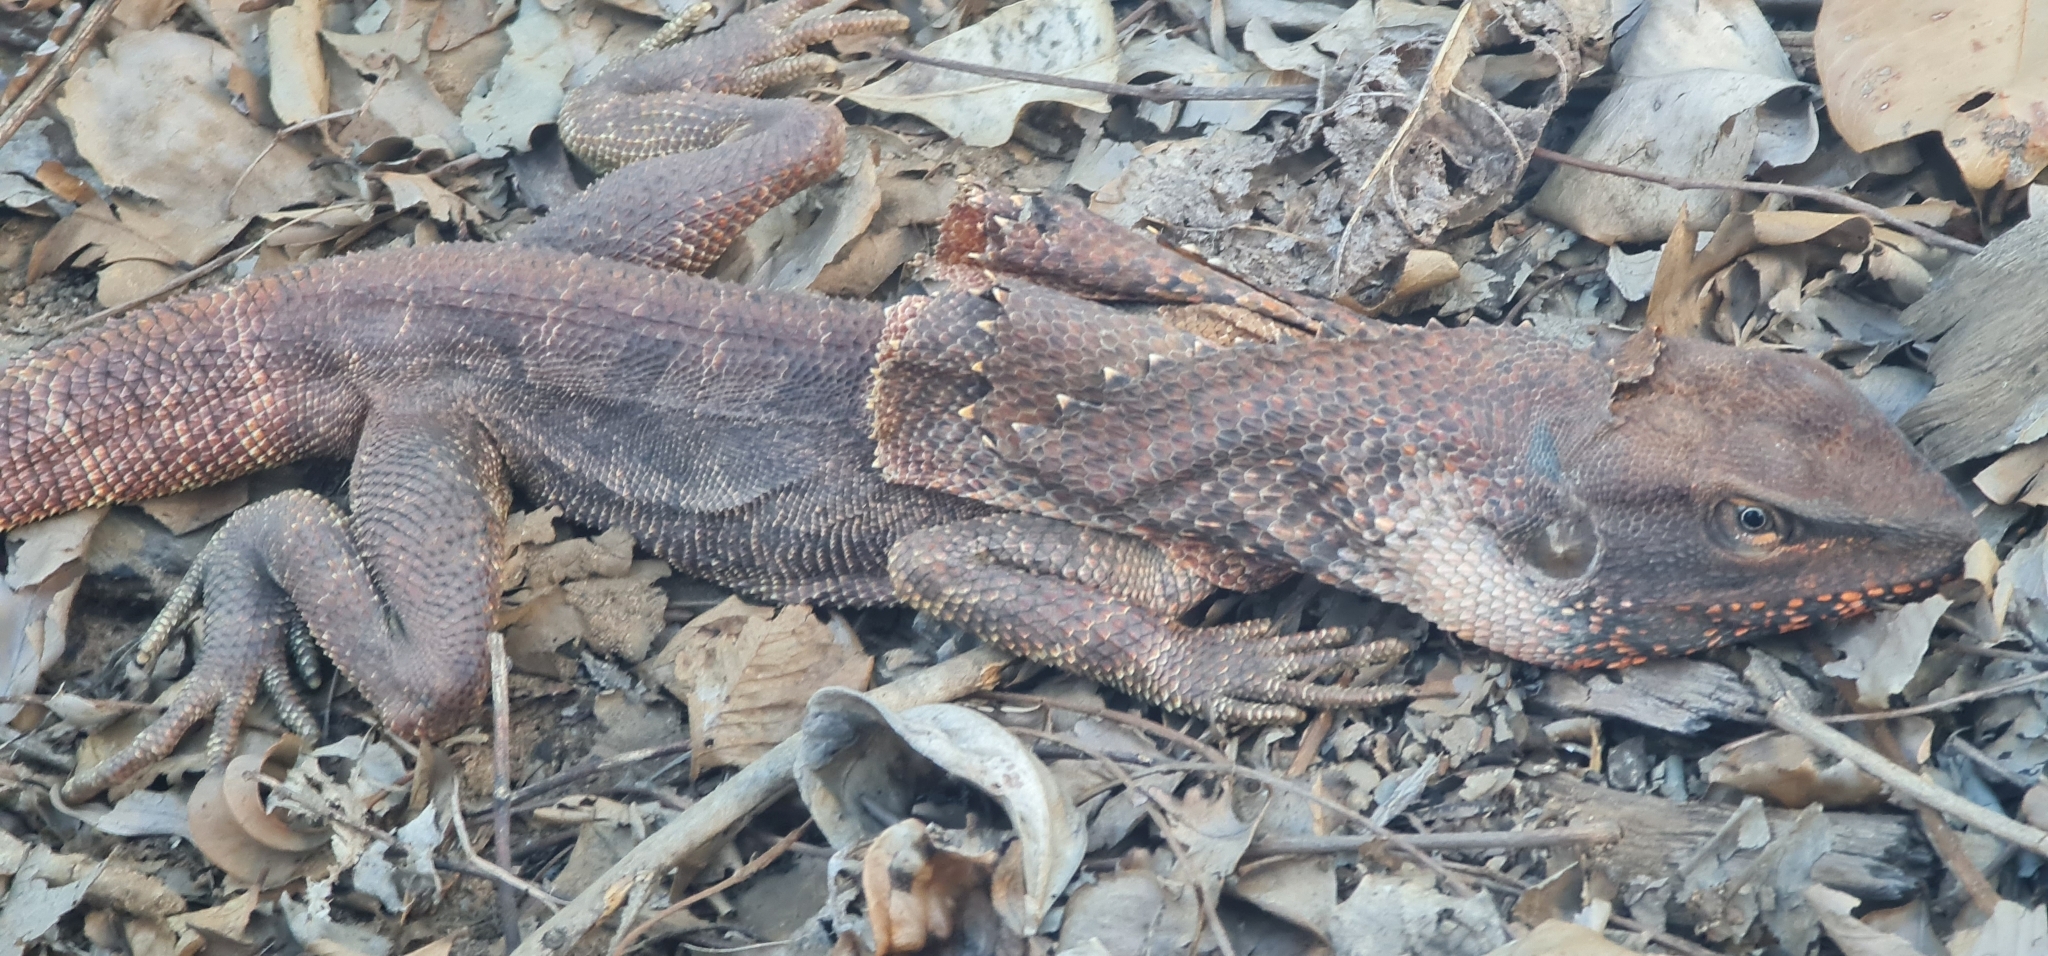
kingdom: Animalia
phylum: Chordata
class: Squamata
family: Agamidae
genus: Chlamydosaurus
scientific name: Chlamydosaurus kingii
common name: Frilled lizard
